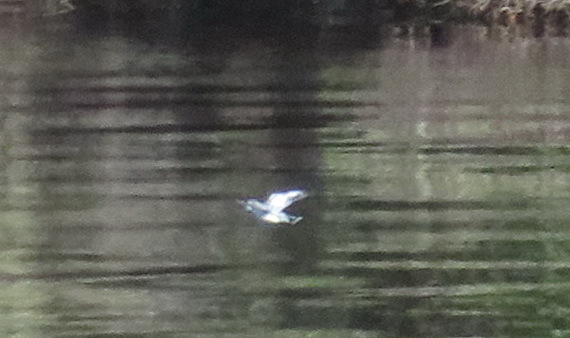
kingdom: Animalia
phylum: Chordata
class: Aves
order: Coraciiformes
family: Alcedinidae
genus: Ceryle
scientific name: Ceryle rudis
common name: Pied kingfisher
